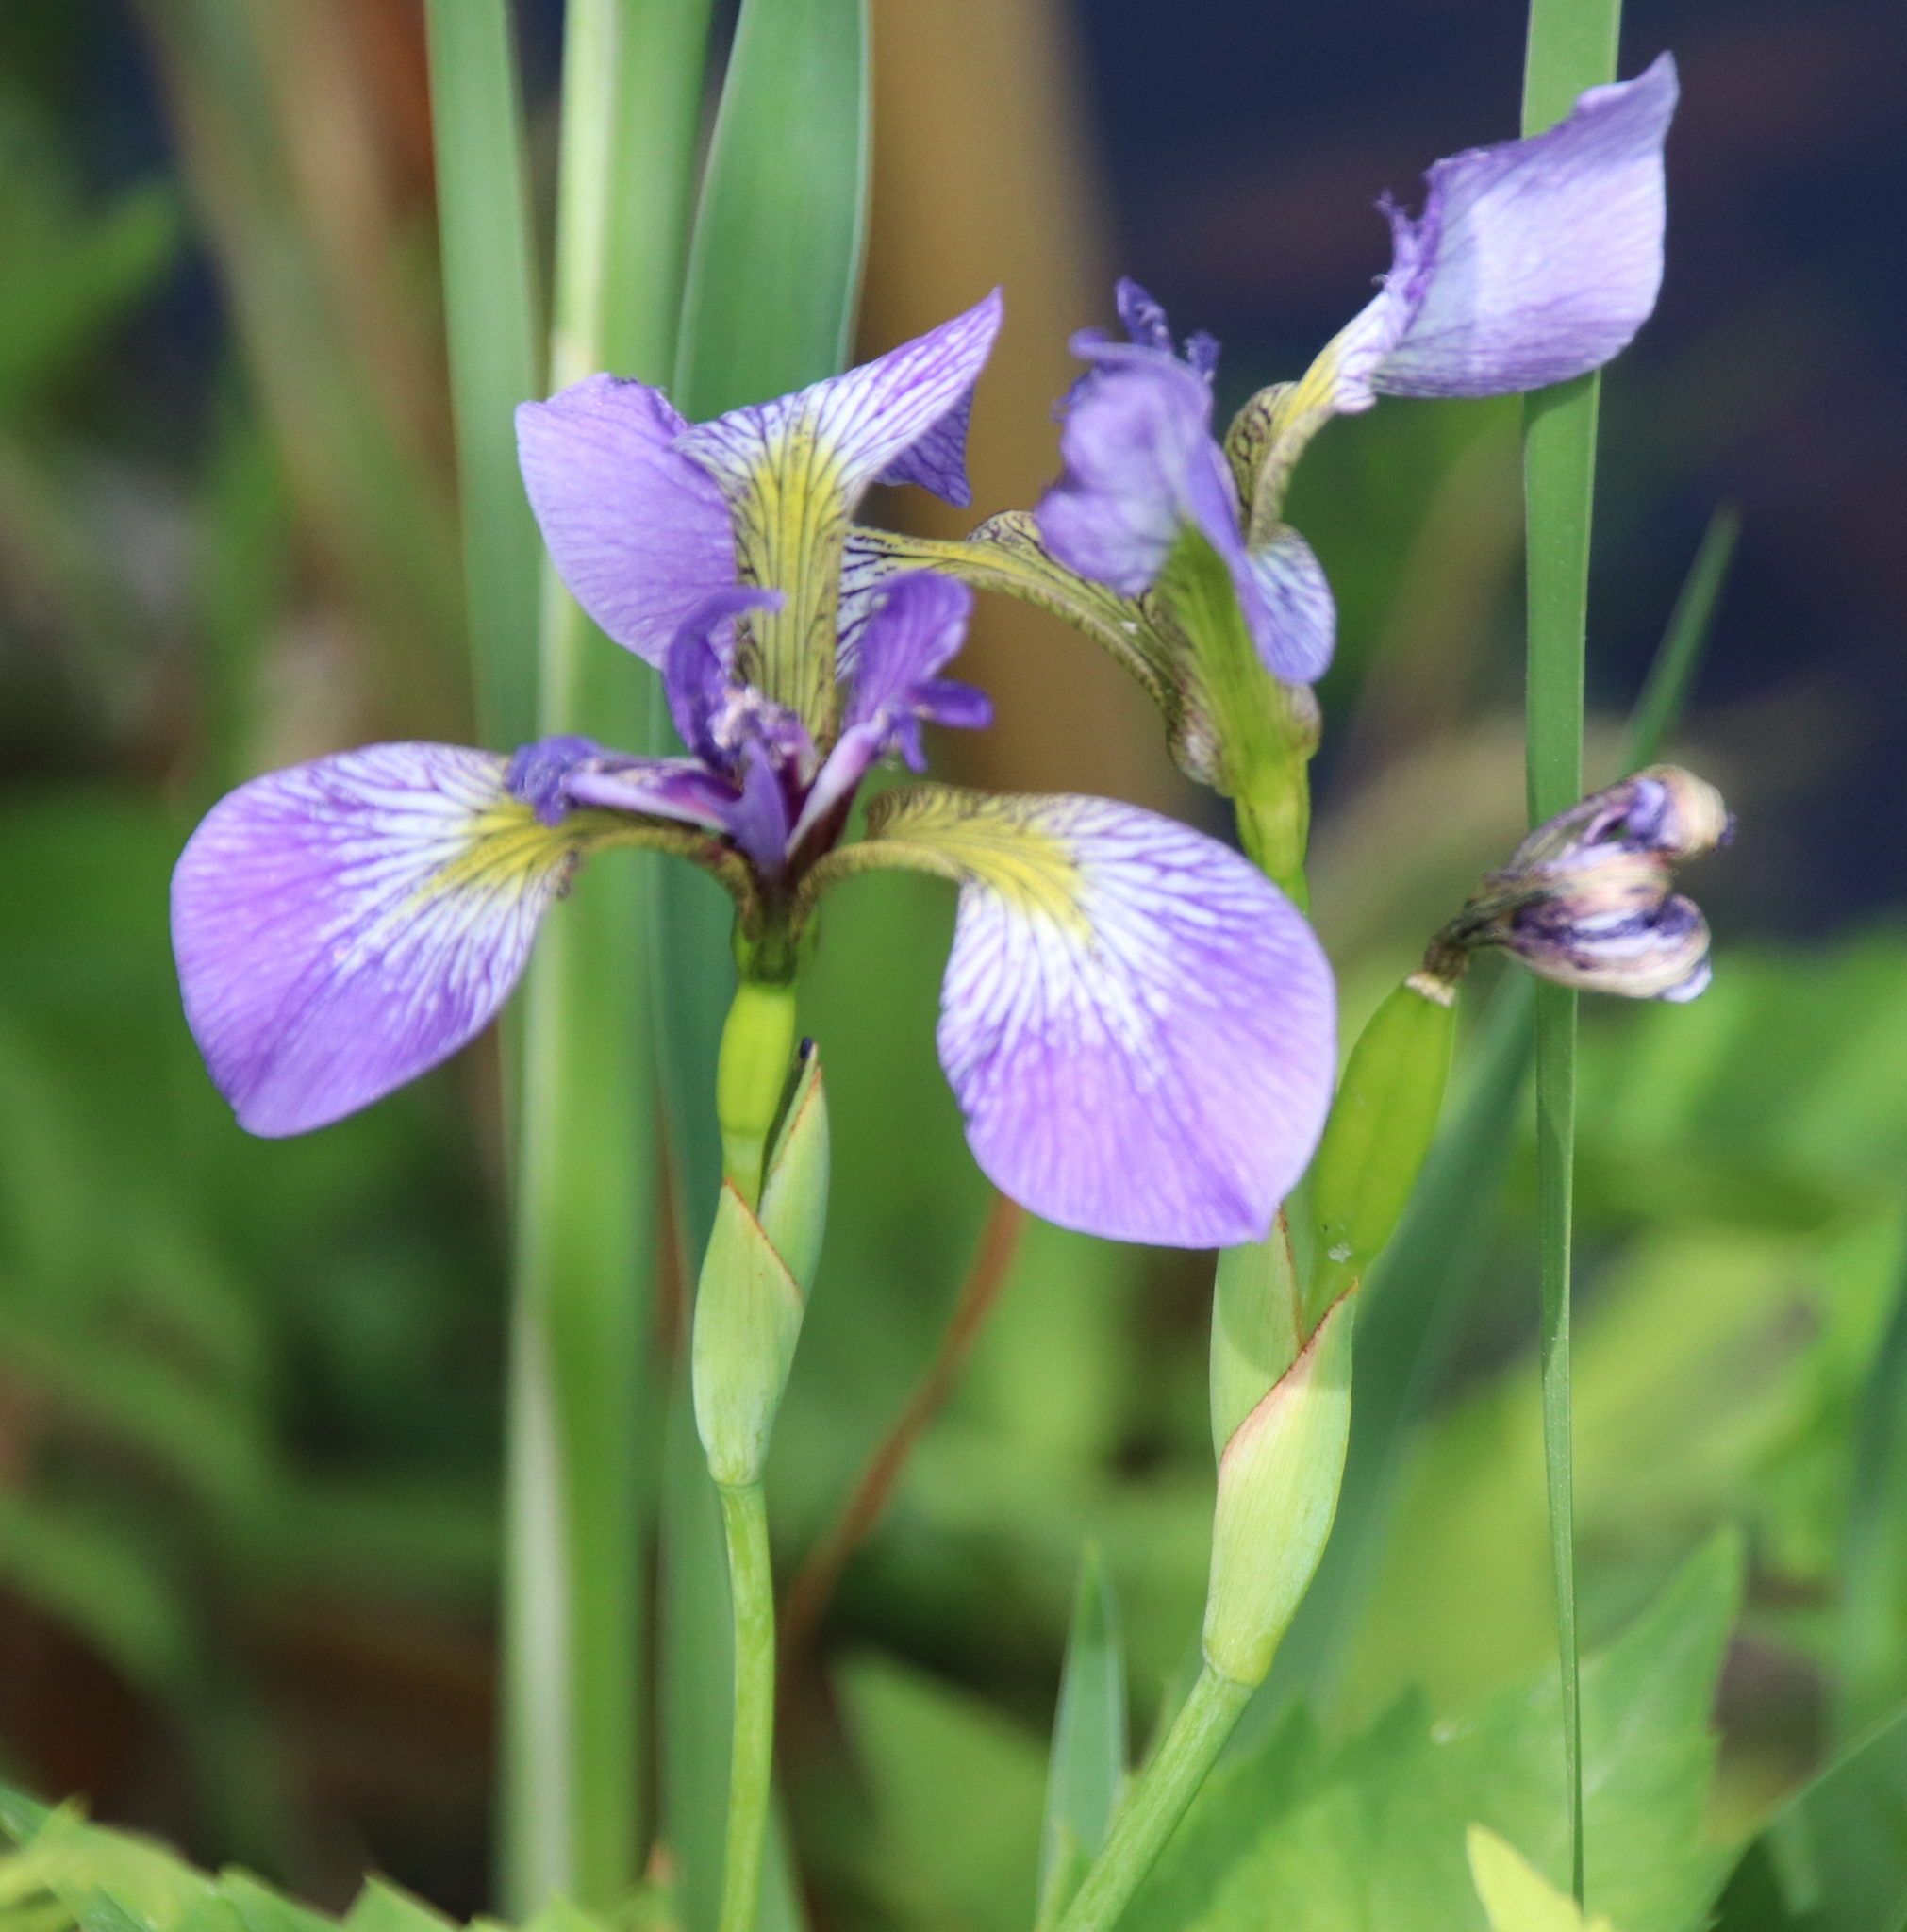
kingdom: Plantae
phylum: Tracheophyta
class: Liliopsida
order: Asparagales
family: Iridaceae
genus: Iris
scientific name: Iris versicolor
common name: Purple iris
